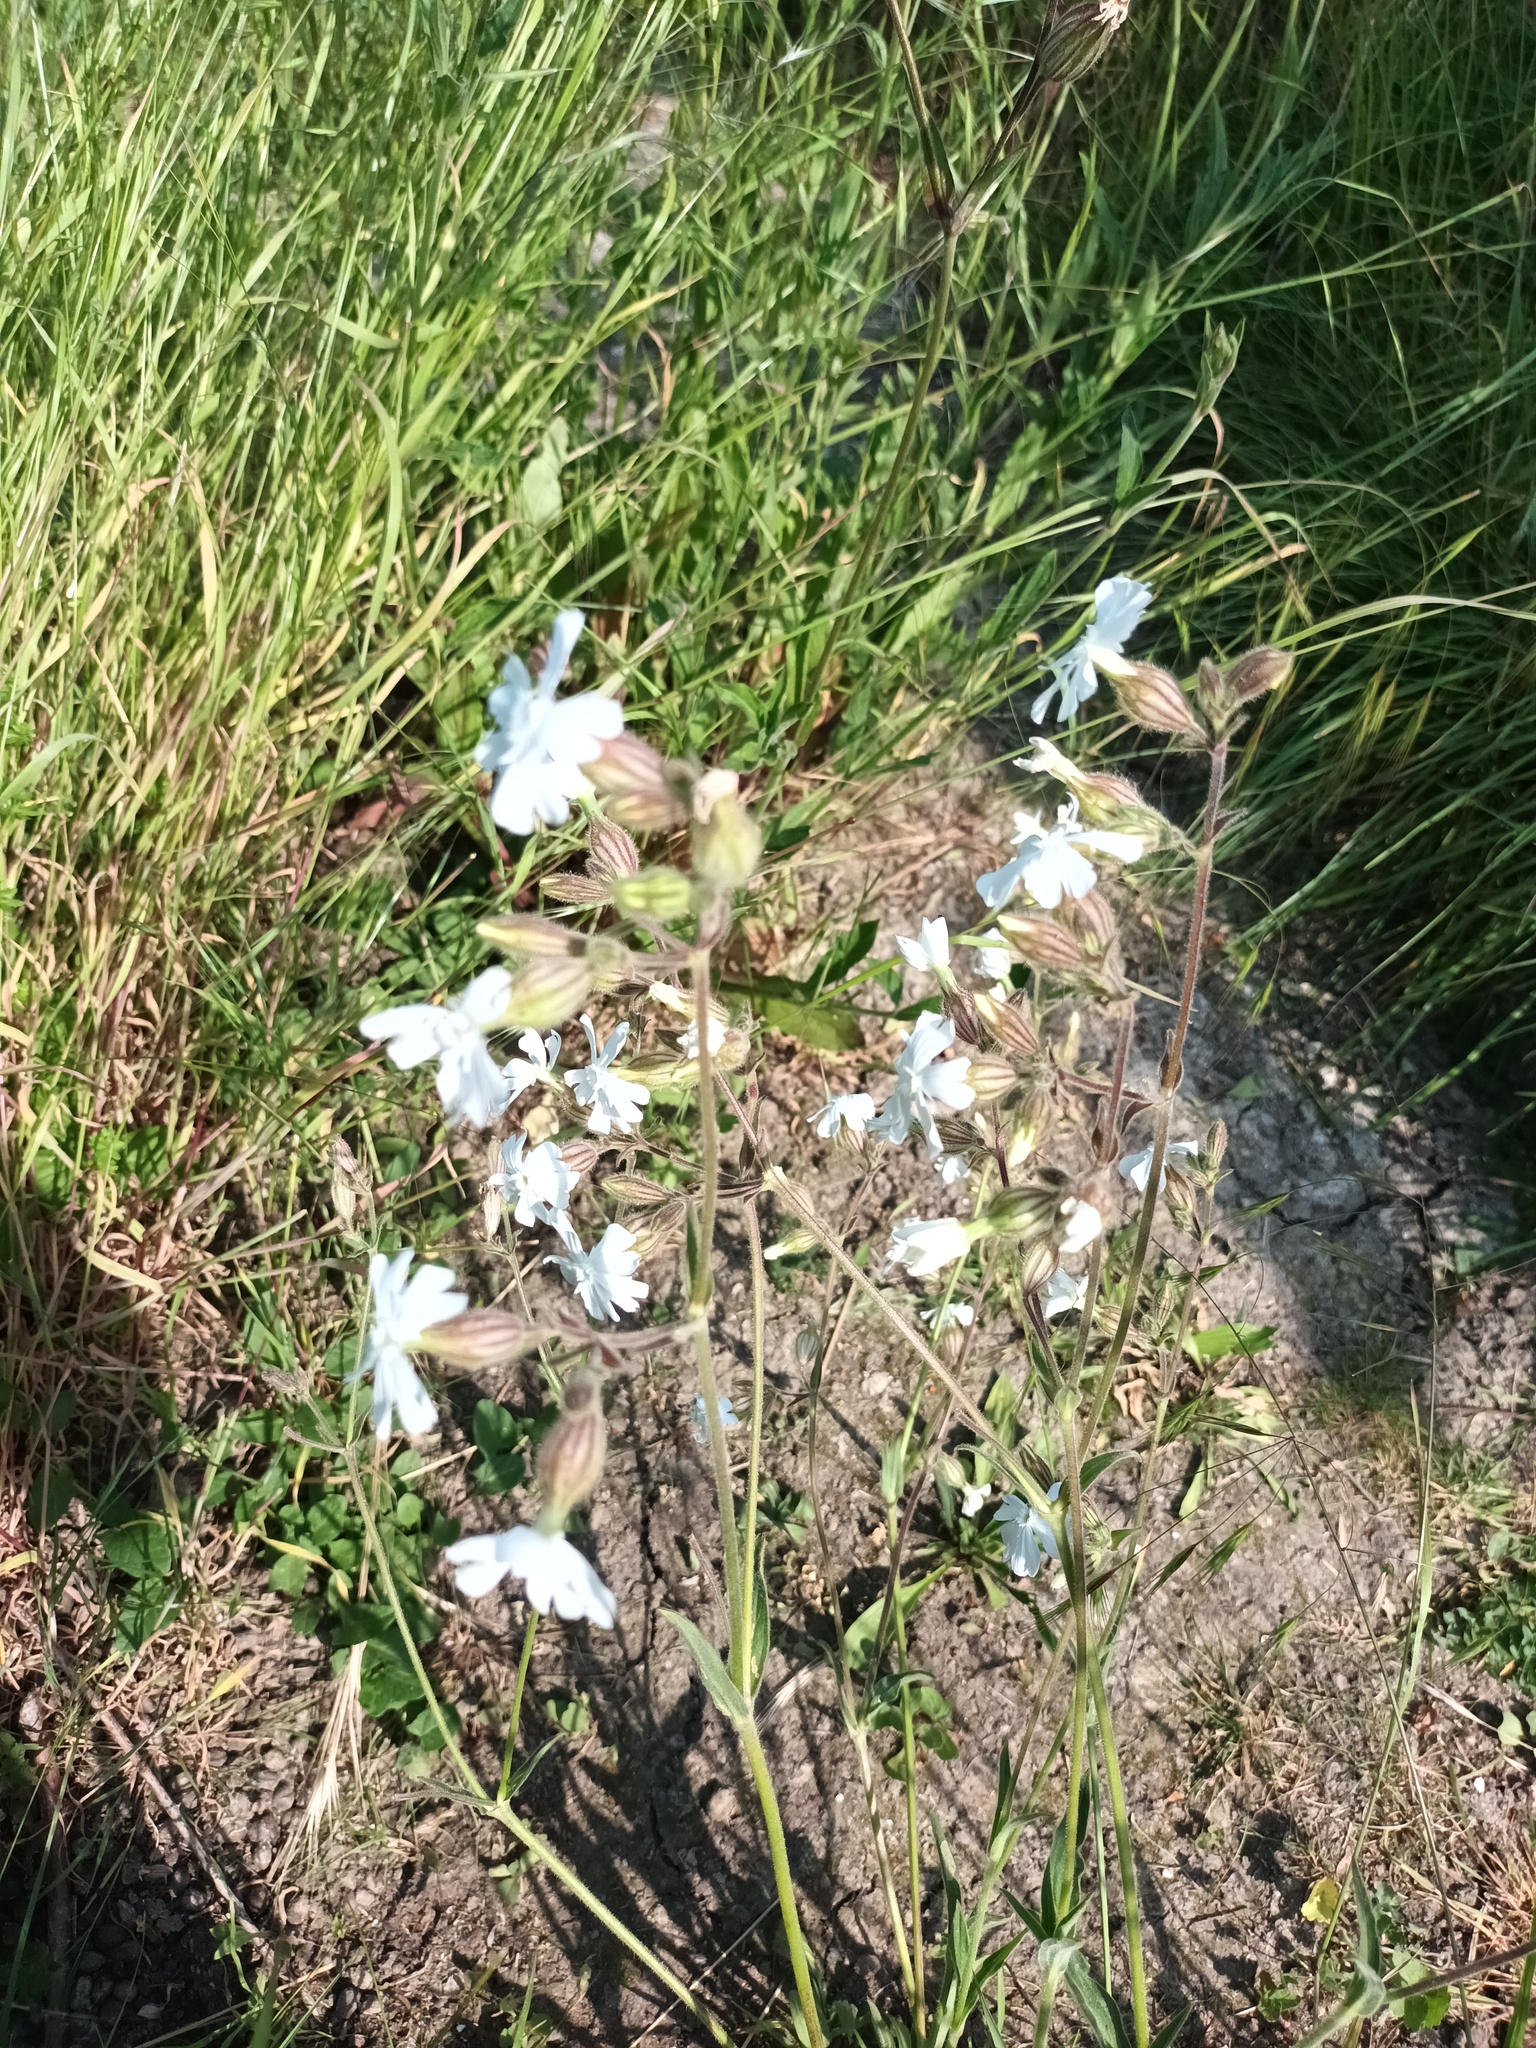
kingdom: Plantae
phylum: Tracheophyta
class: Magnoliopsida
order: Caryophyllales
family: Caryophyllaceae
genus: Silene
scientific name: Silene latifolia
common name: White campion
